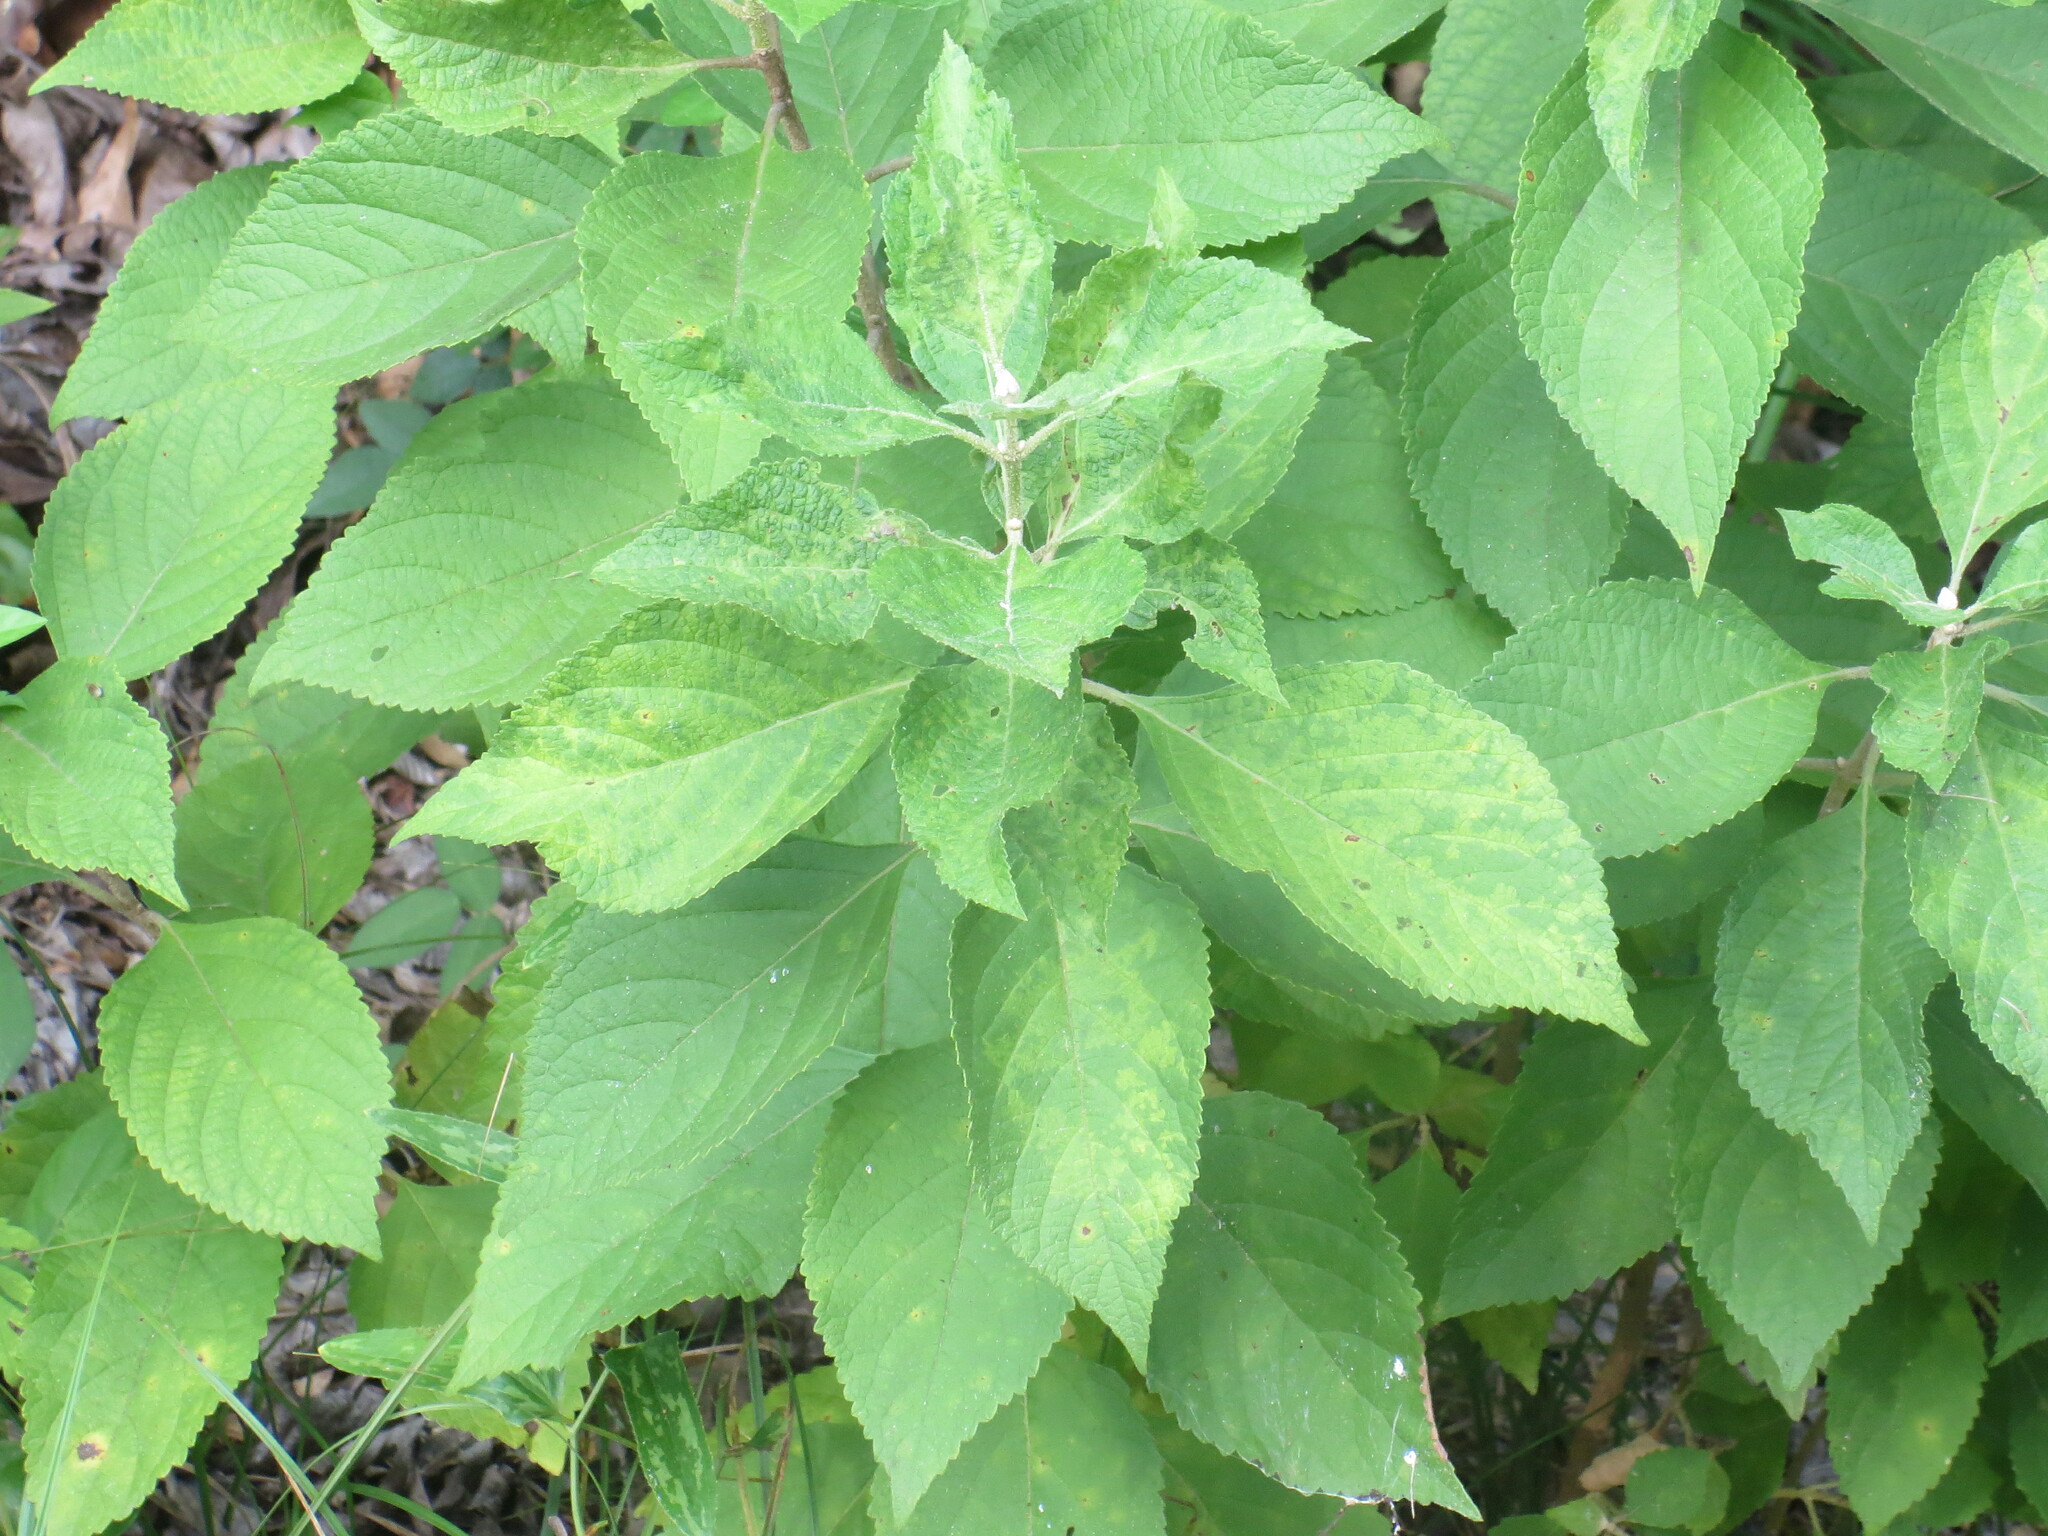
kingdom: Plantae
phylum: Tracheophyta
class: Magnoliopsida
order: Lamiales
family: Lamiaceae
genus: Callicarpa
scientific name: Callicarpa americana
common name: American beautyberry
